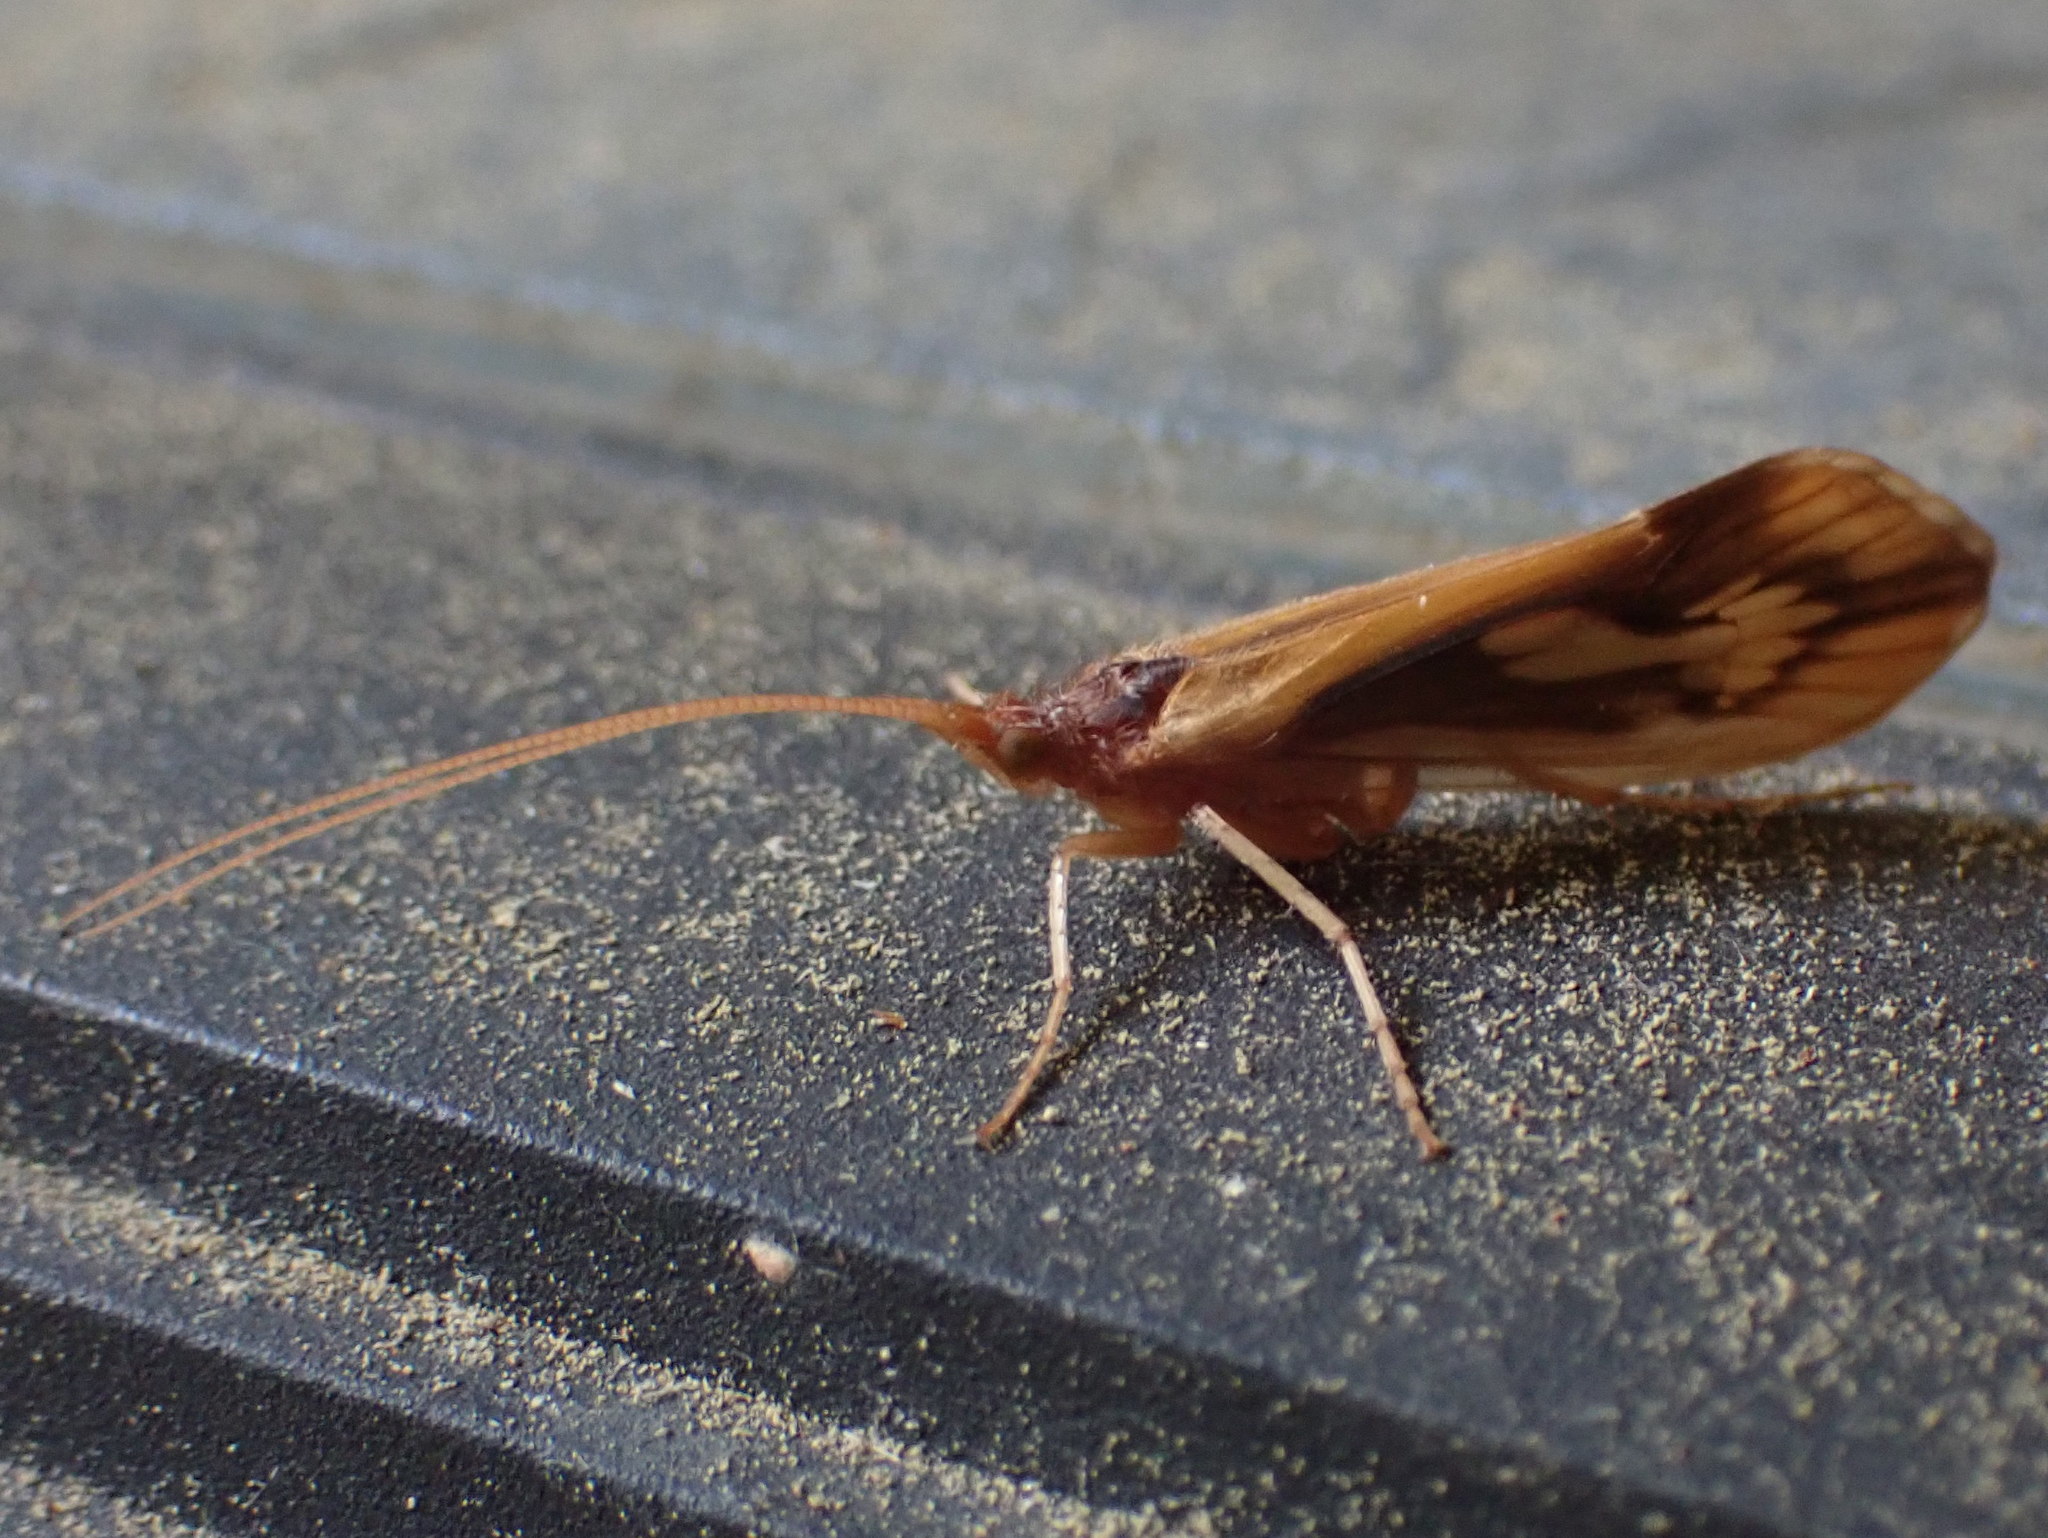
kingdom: Animalia
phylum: Arthropoda
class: Insecta
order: Trichoptera
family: Limnephilidae
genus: Platycentropus
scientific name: Platycentropus radiatus
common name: Chocolate-and-cream sedge
